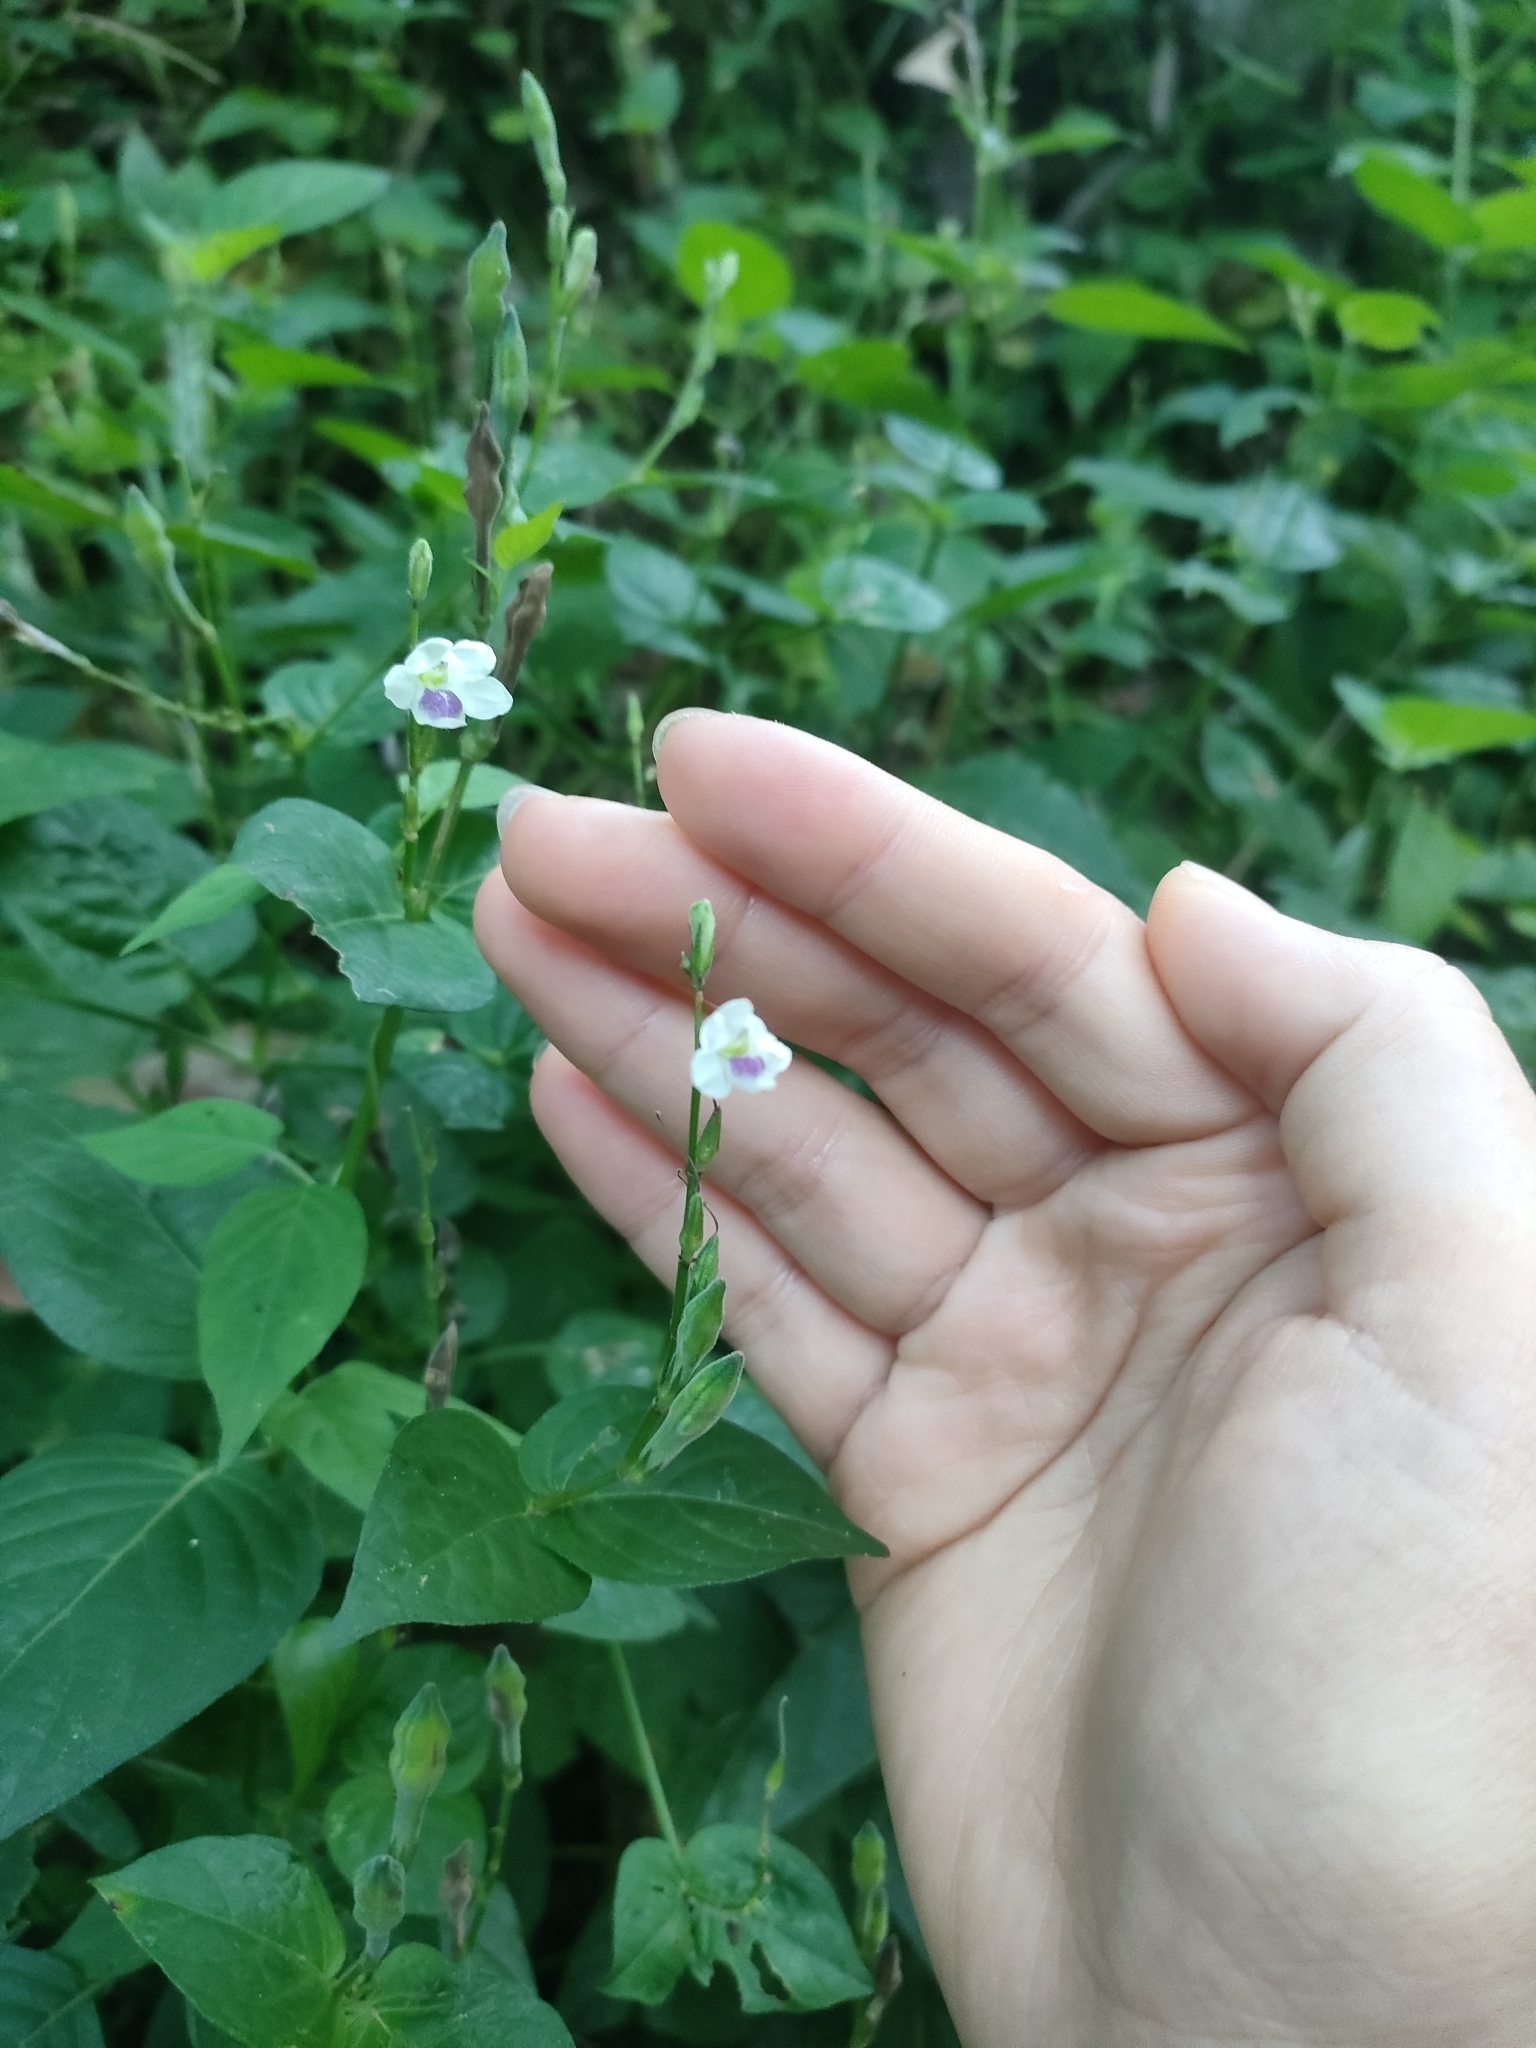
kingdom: Plantae
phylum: Tracheophyta
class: Magnoliopsida
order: Lamiales
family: Acanthaceae
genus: Asystasia
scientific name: Asystasia intrusa
